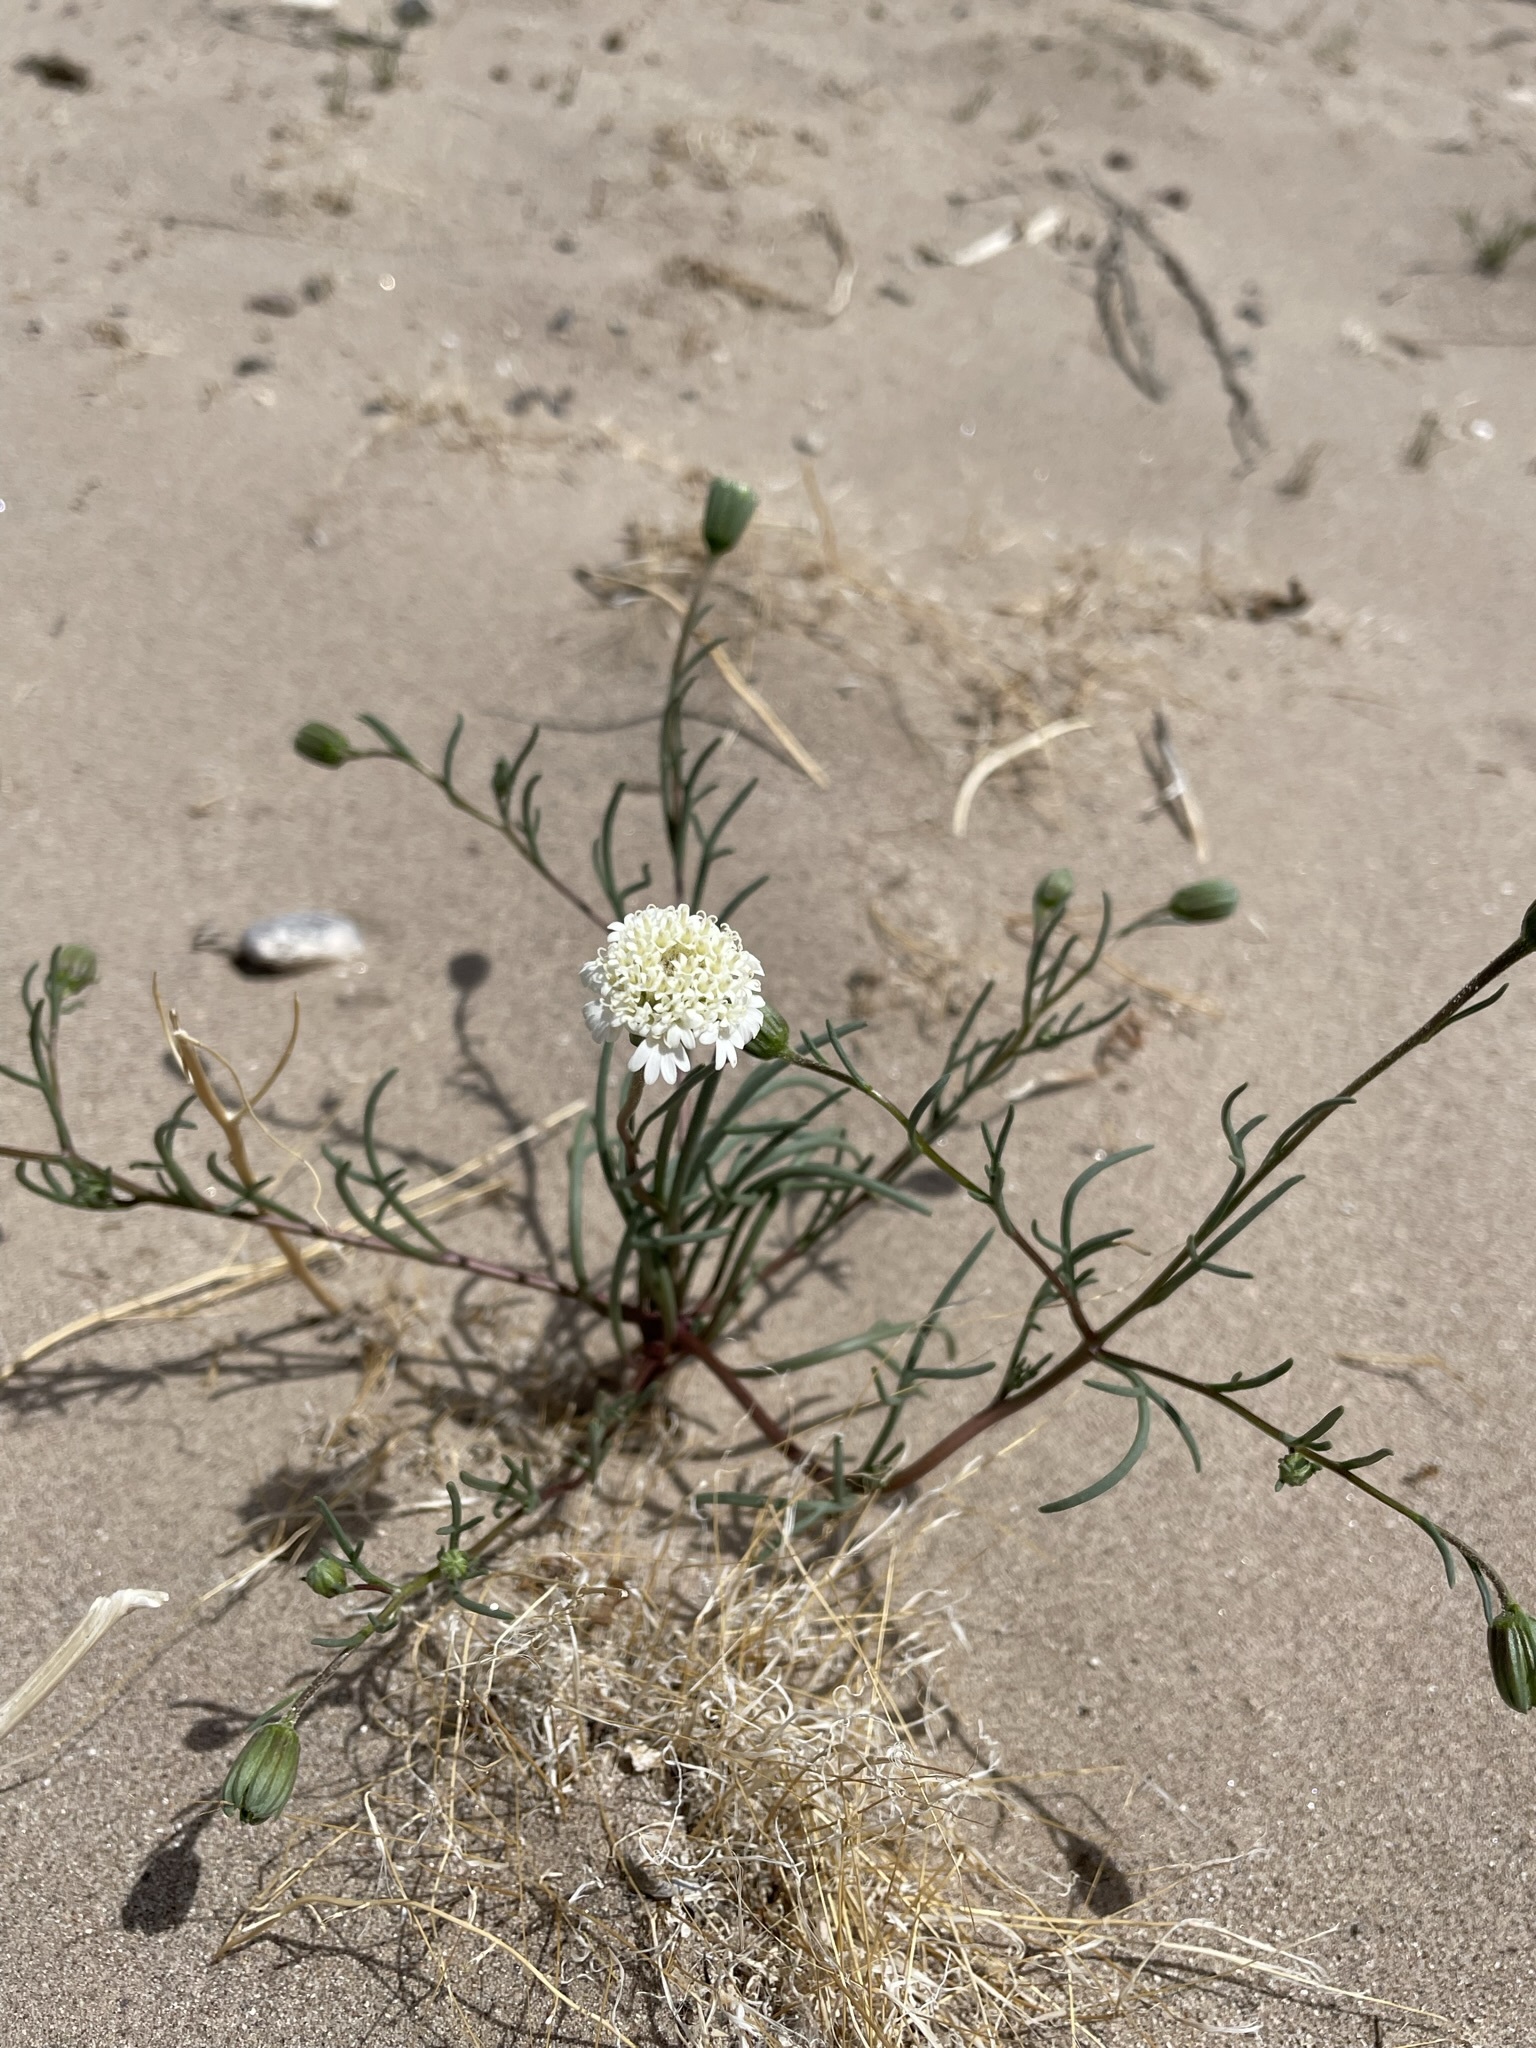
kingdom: Plantae
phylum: Tracheophyta
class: Magnoliopsida
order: Asterales
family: Asteraceae
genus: Chaenactis
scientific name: Chaenactis fremontii
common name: Fremont pincushion
